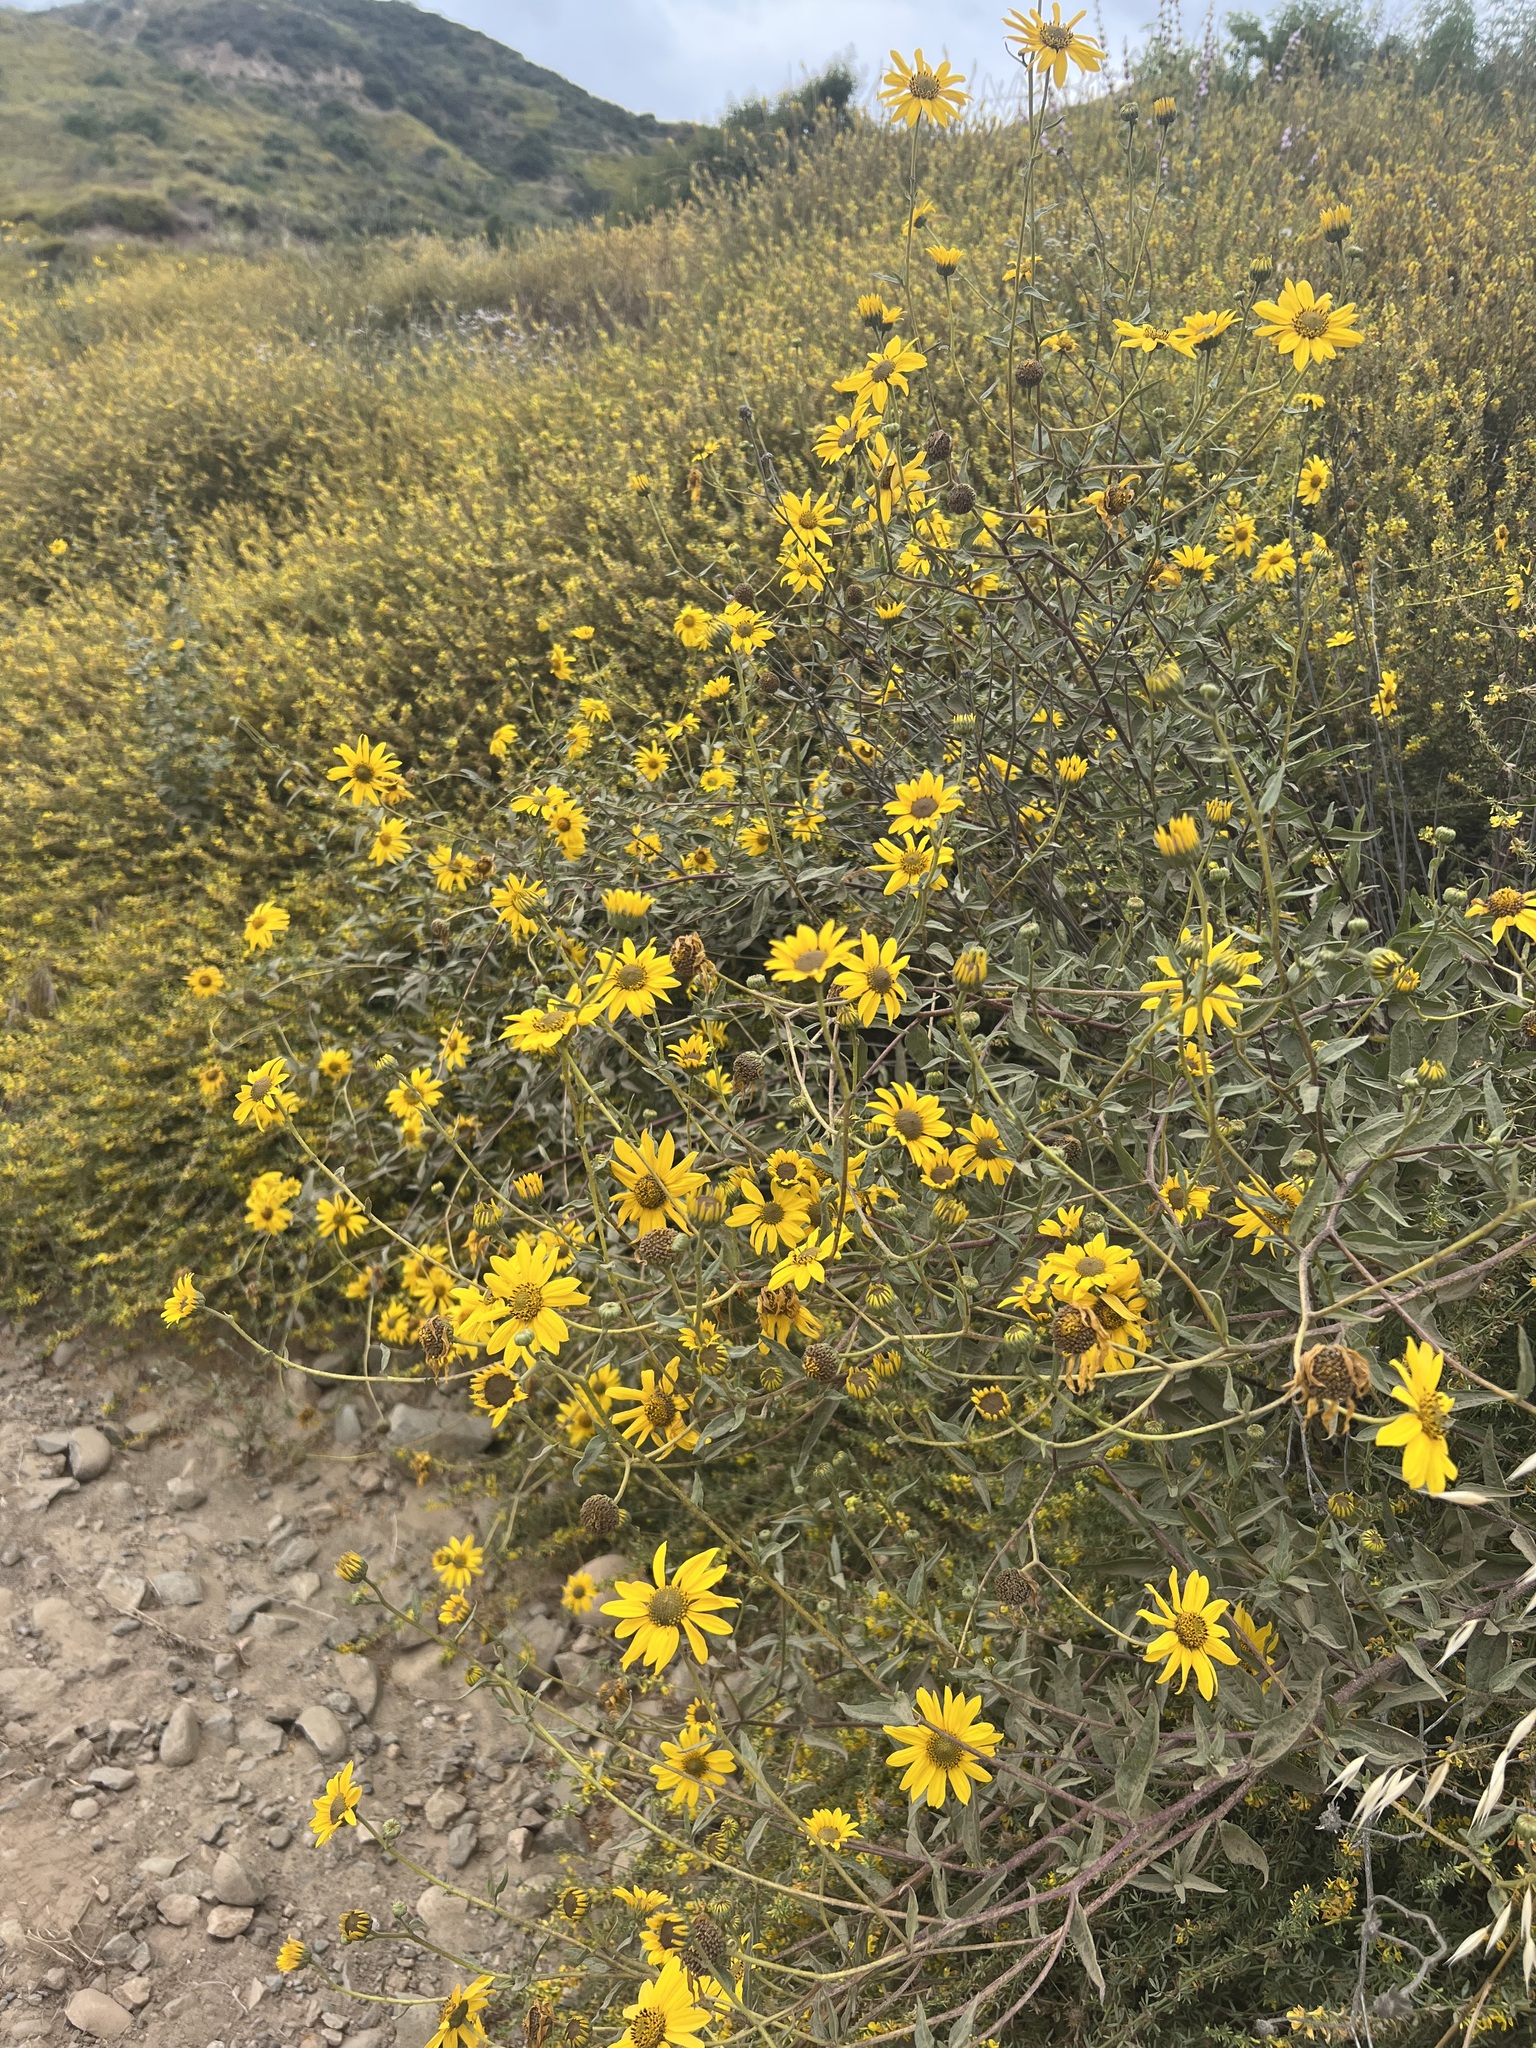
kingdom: Plantae
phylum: Tracheophyta
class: Magnoliopsida
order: Asterales
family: Asteraceae
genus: Helianthus
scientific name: Helianthus gracilentus
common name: Slender sunflower
